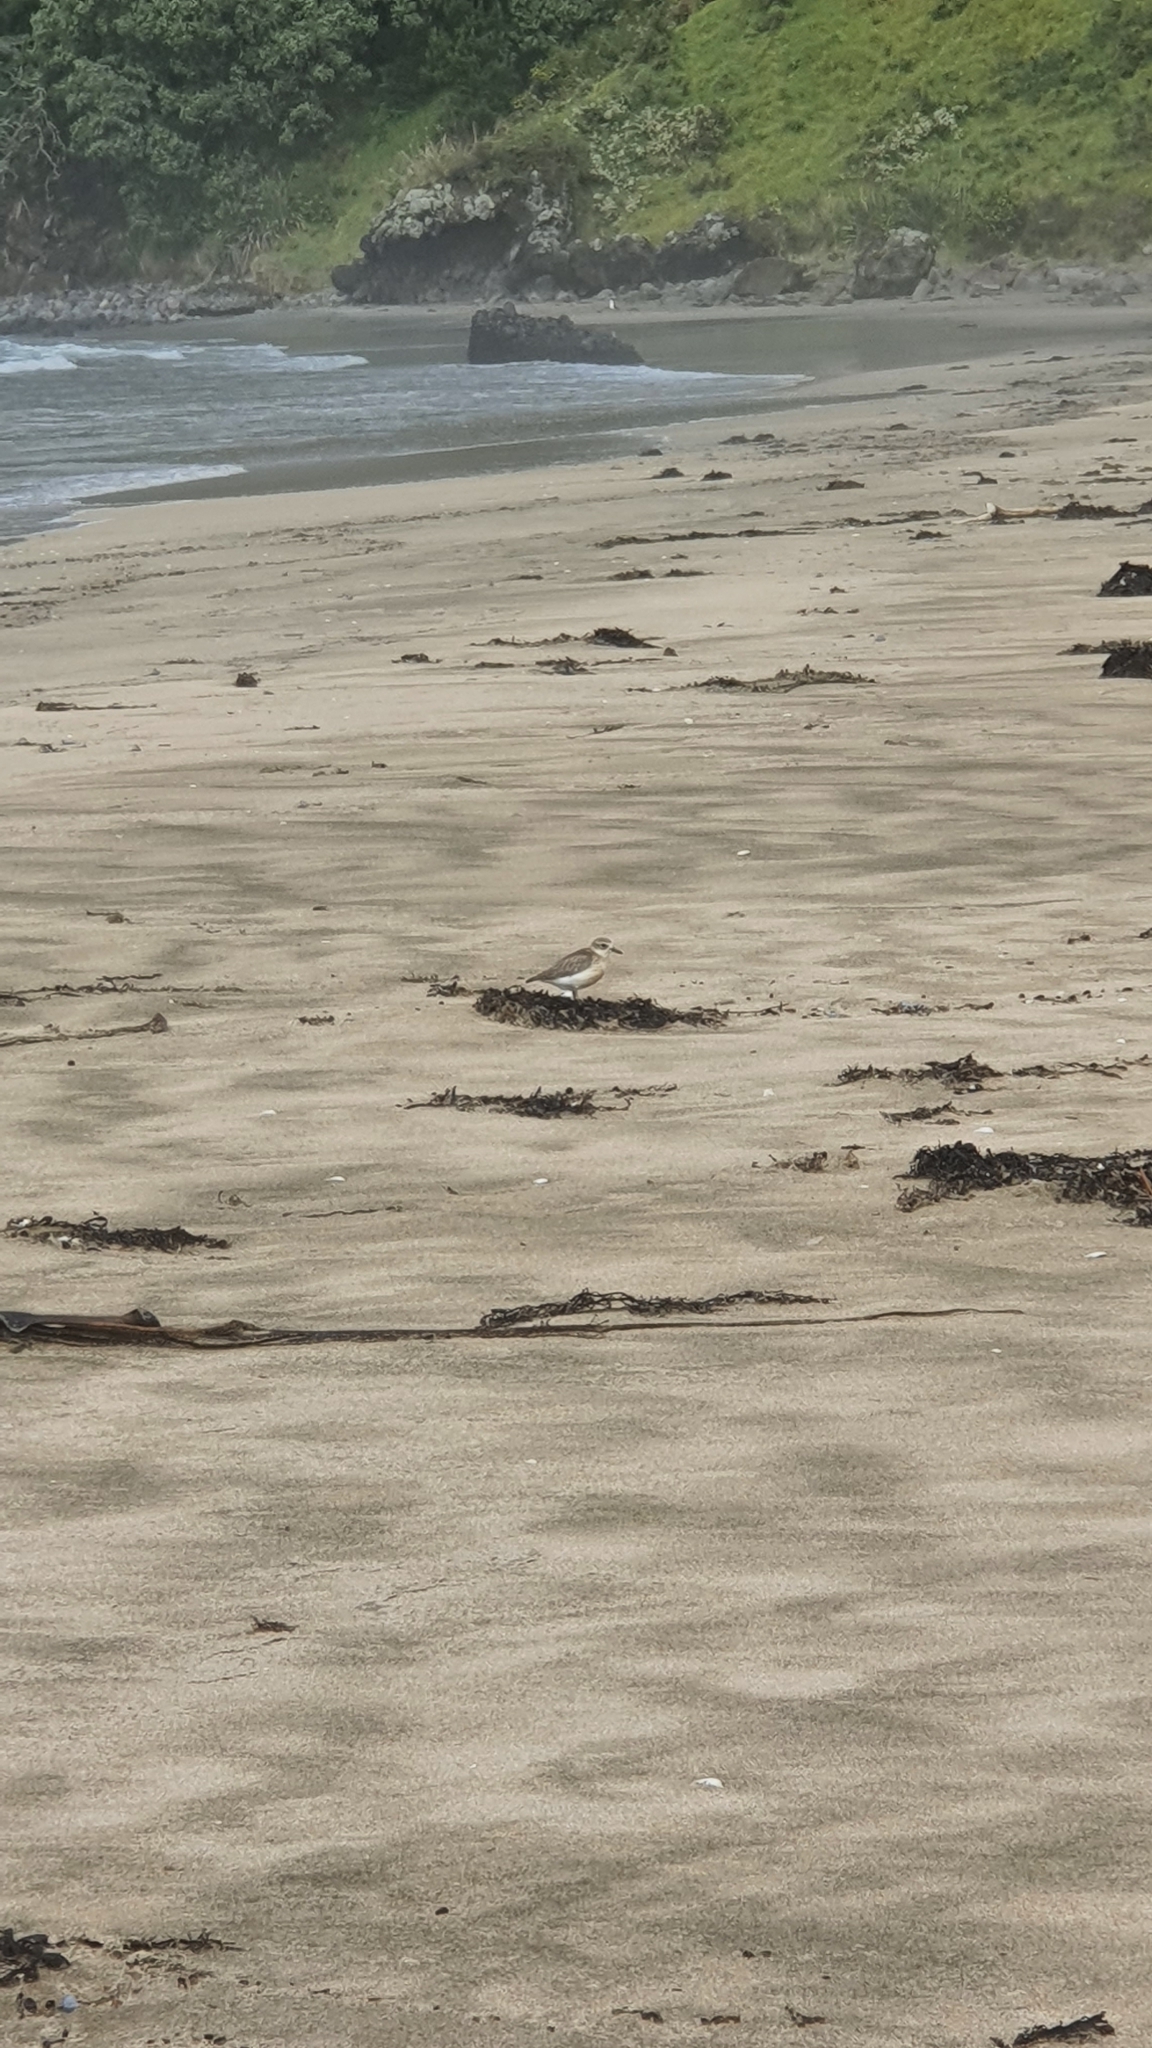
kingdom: Animalia
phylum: Chordata
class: Aves
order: Charadriiformes
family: Charadriidae
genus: Anarhynchus
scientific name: Anarhynchus
